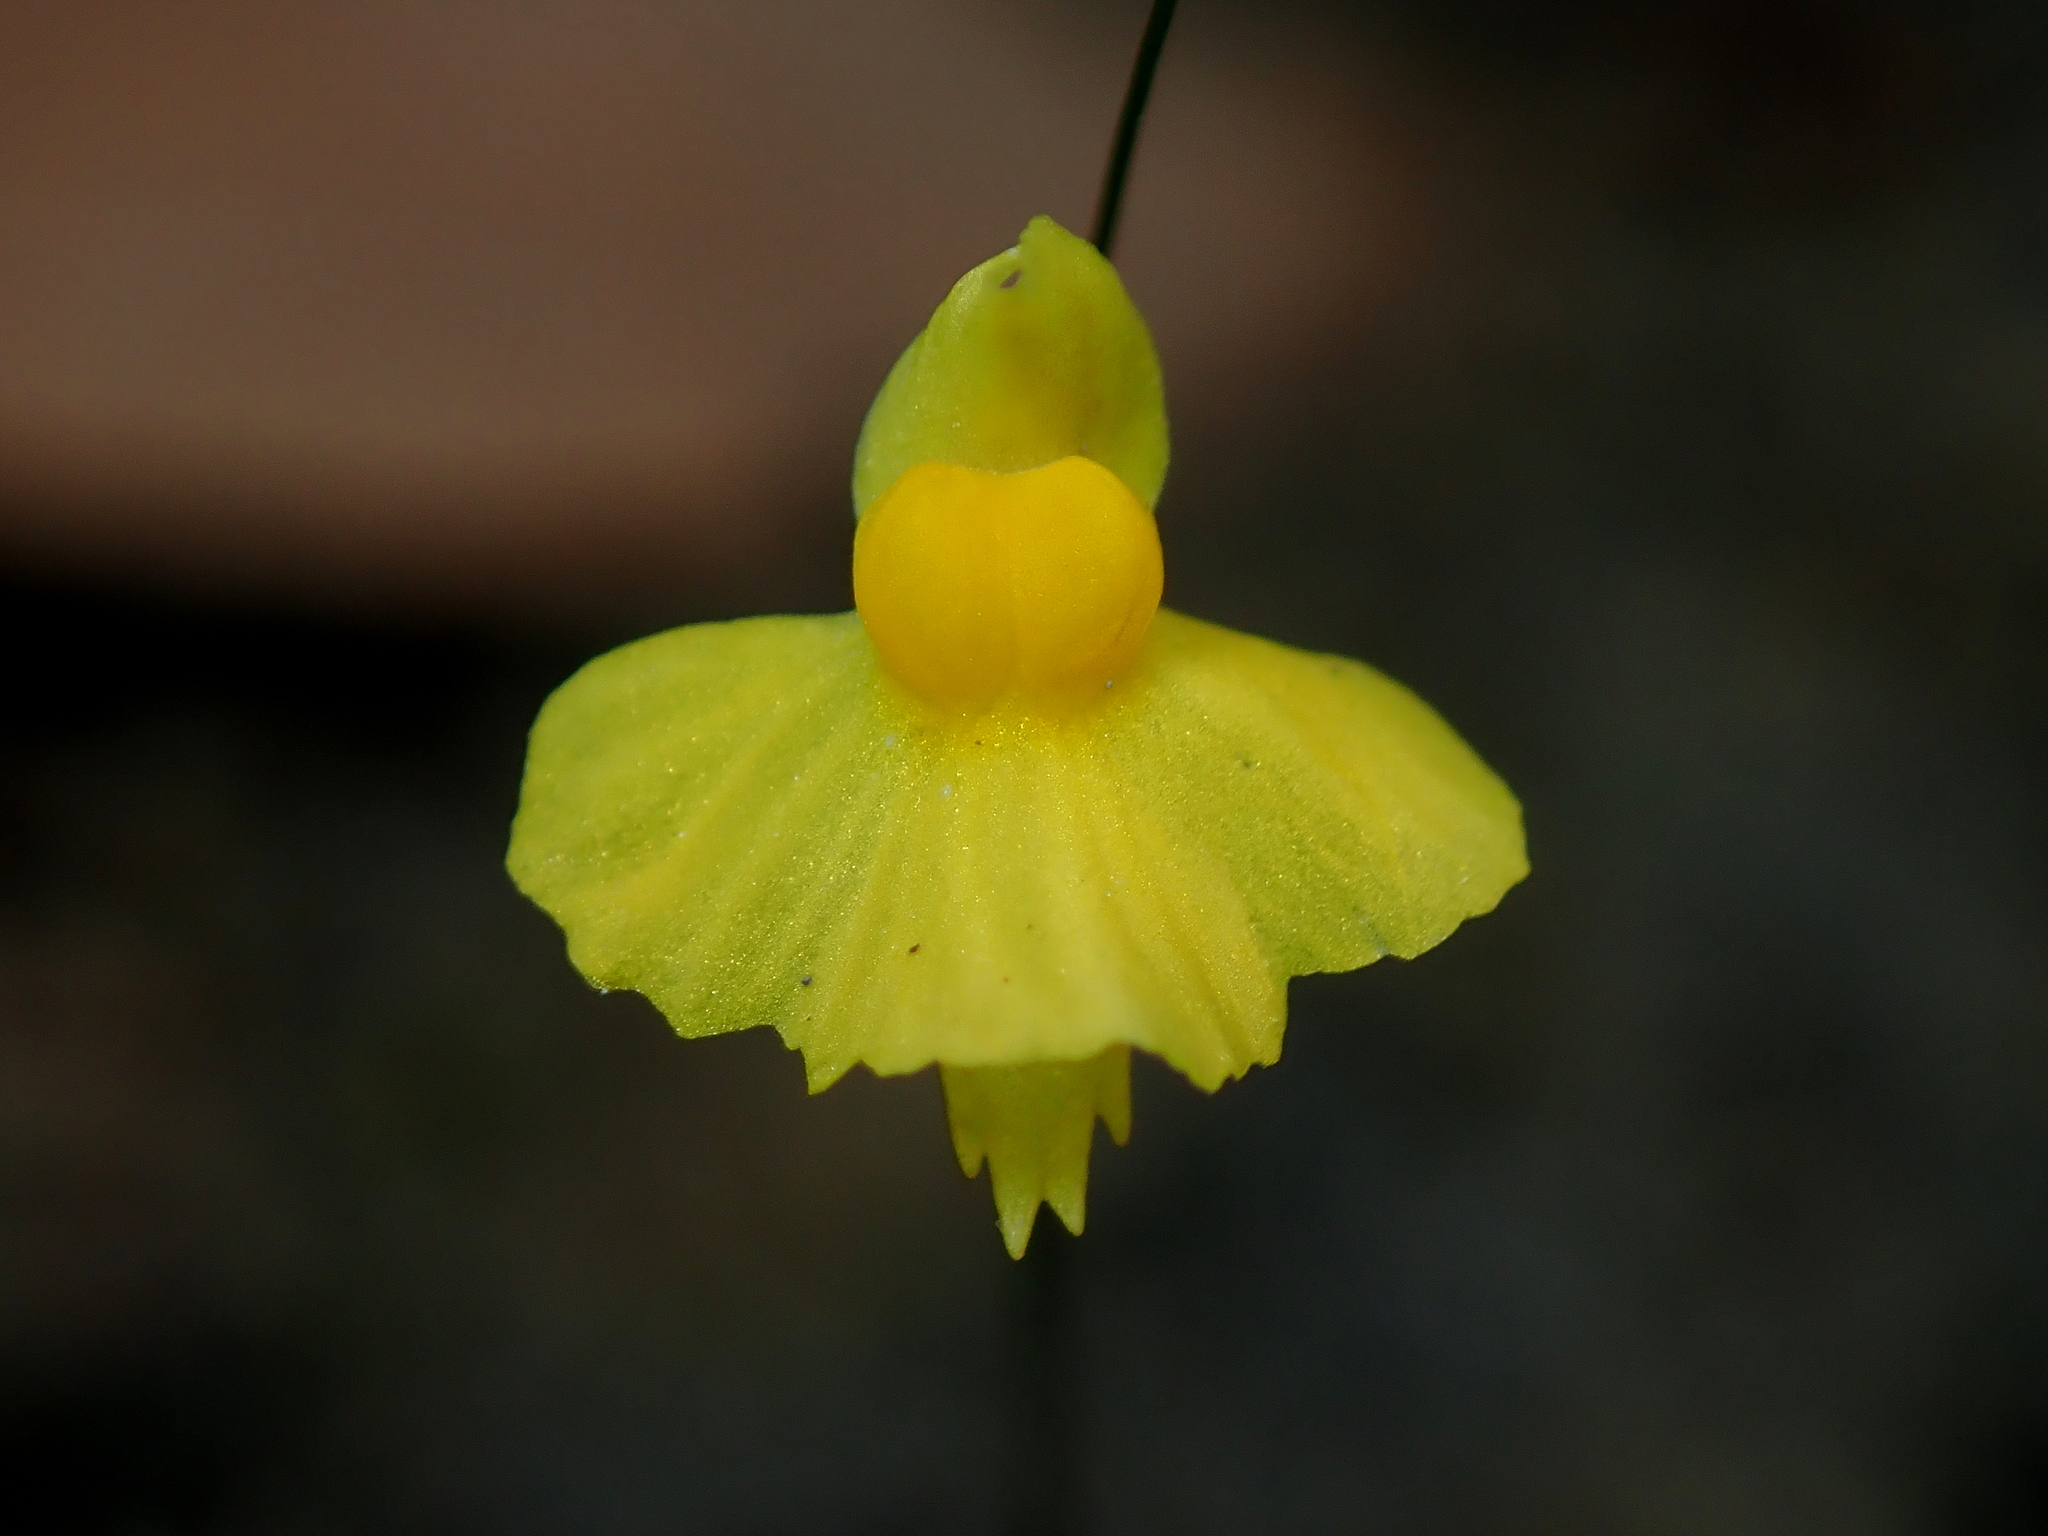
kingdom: Plantae
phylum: Tracheophyta
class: Magnoliopsida
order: Lamiales
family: Lentibulariaceae
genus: Utricularia
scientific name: Utricularia triloba
